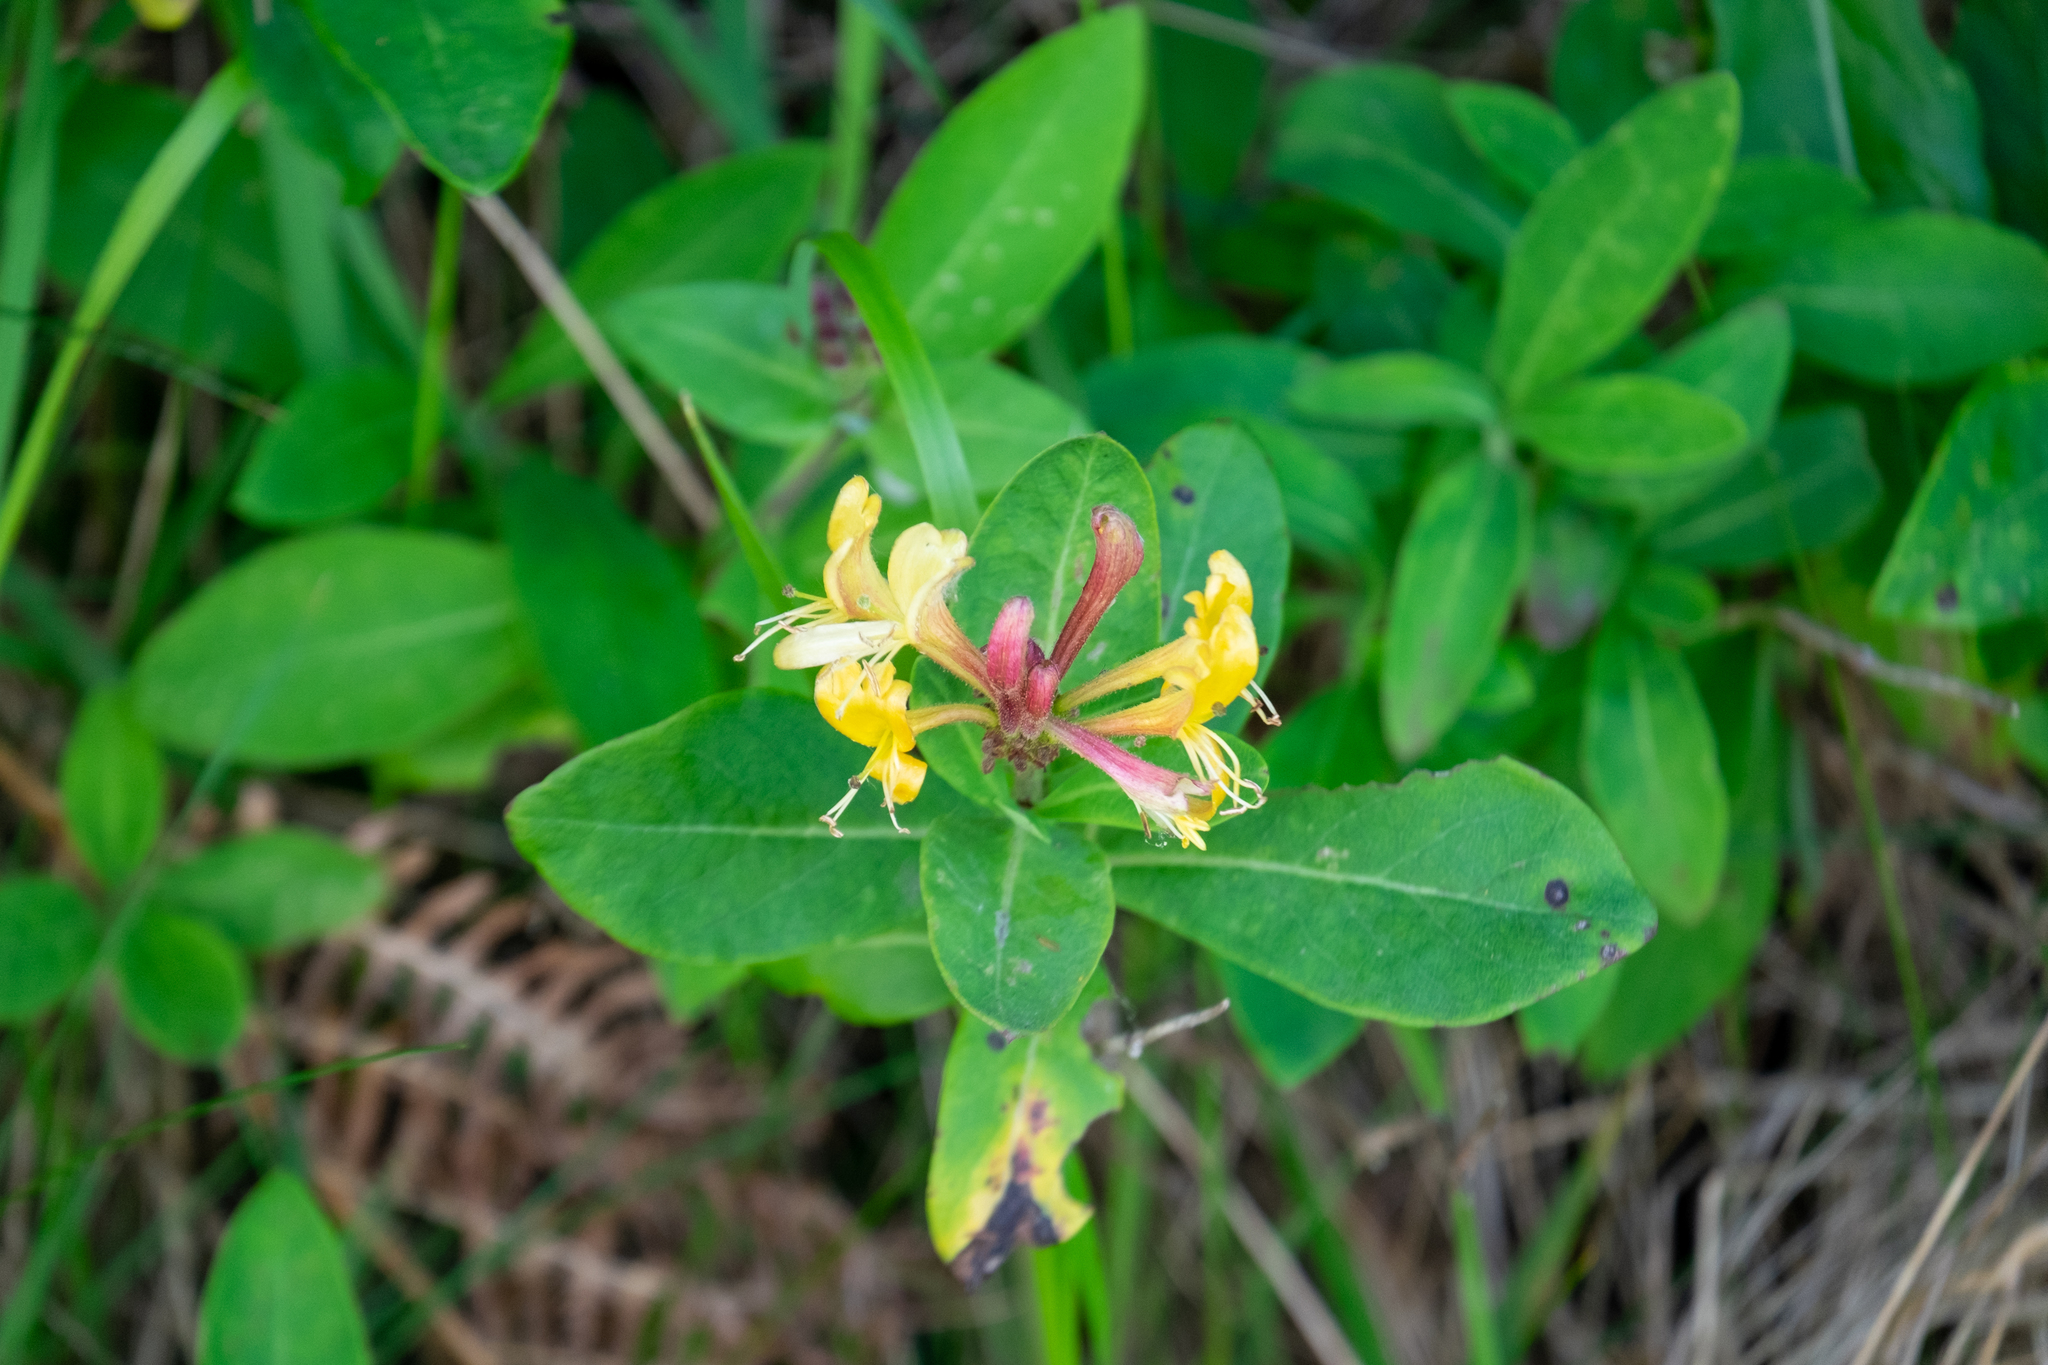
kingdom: Plantae
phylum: Tracheophyta
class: Magnoliopsida
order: Dipsacales
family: Caprifoliaceae
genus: Lonicera
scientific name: Lonicera periclymenum
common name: European honeysuckle
